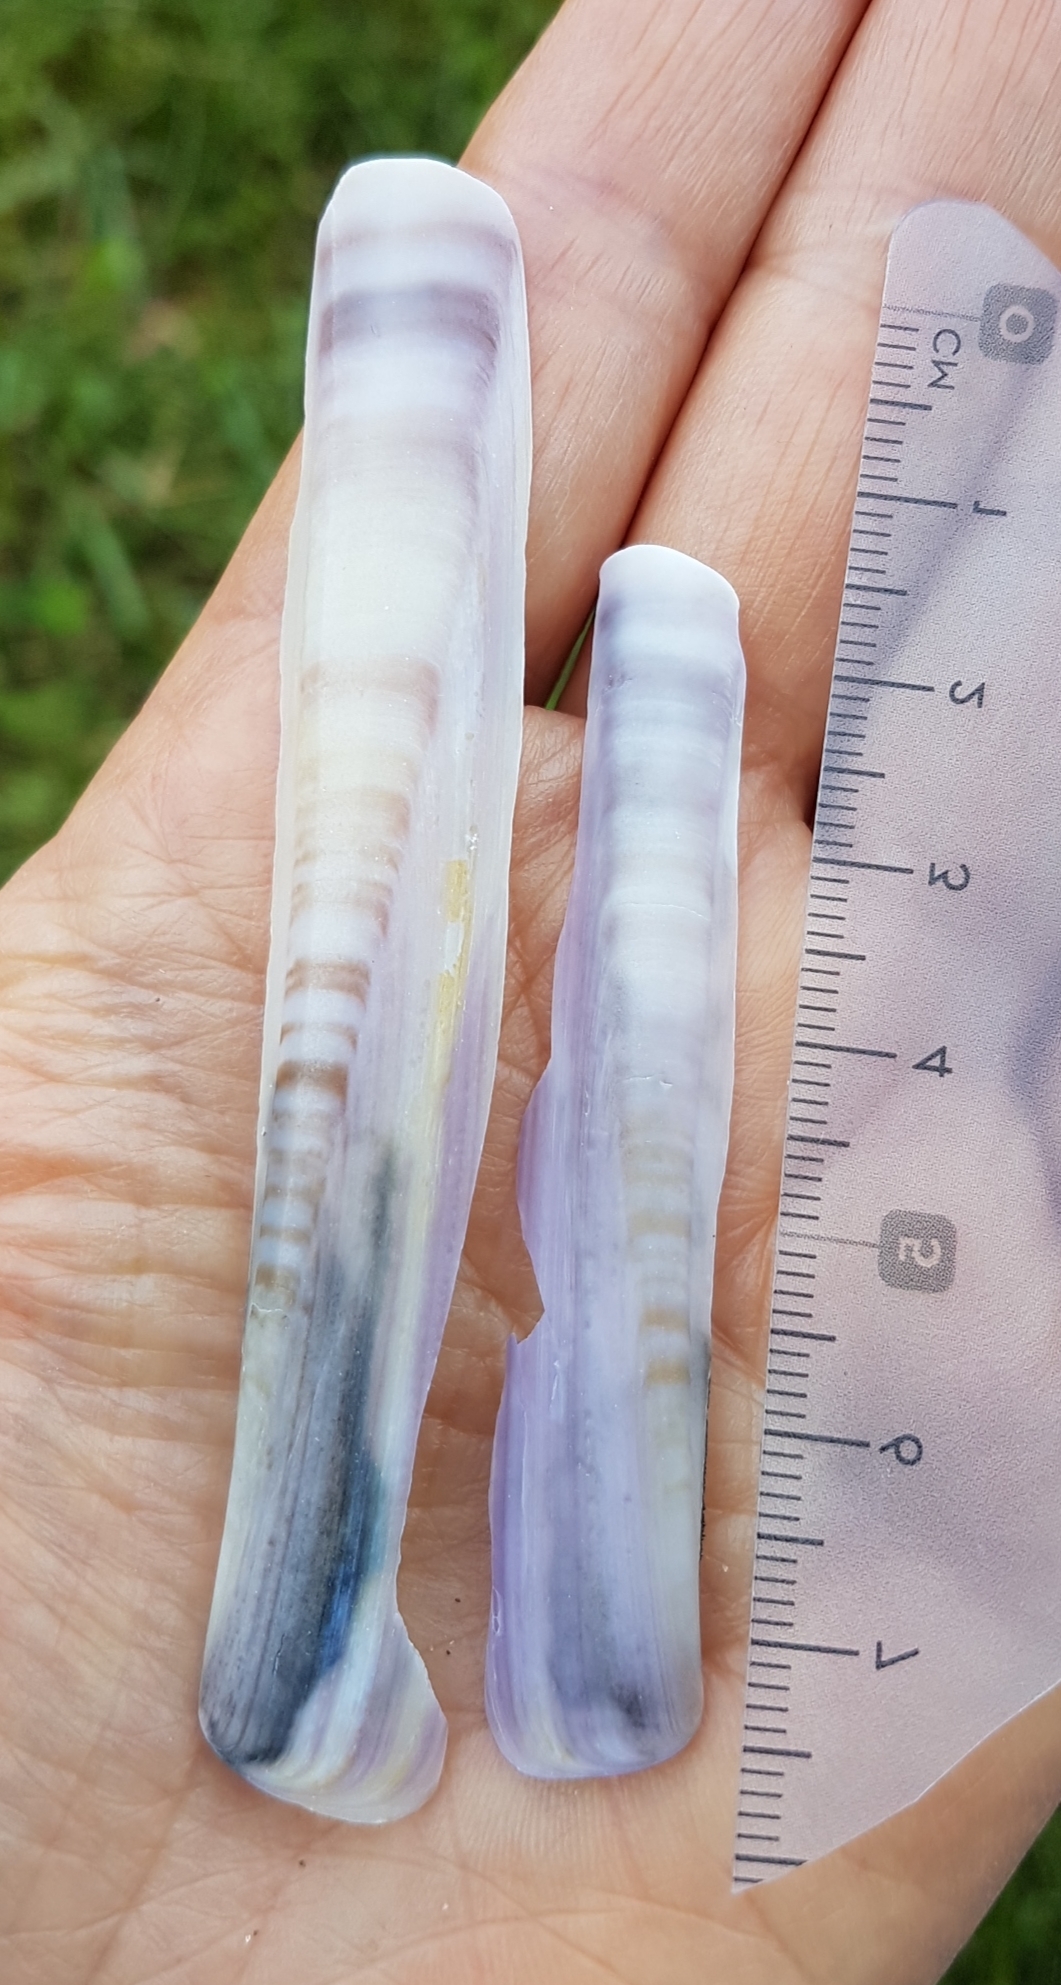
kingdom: Animalia
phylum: Mollusca
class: Bivalvia
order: Adapedonta
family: Pharidae
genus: Ensis
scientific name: Ensis minor
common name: Minor jackknife clam
